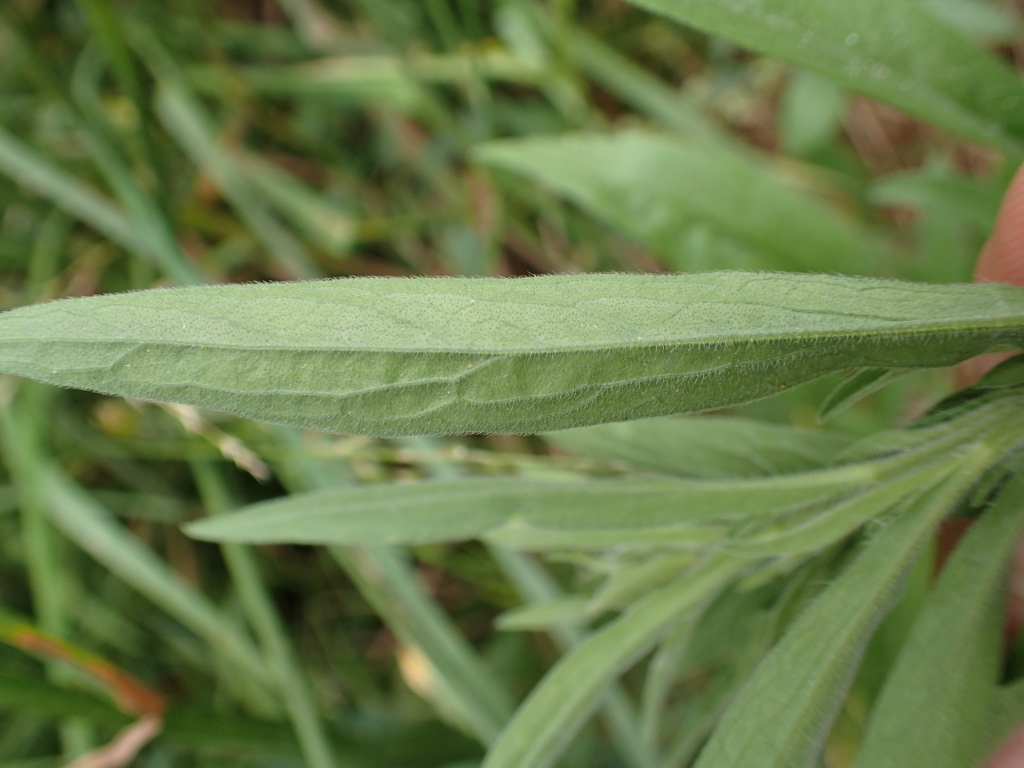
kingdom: Plantae
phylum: Tracheophyta
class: Magnoliopsida
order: Asterales
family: Asteraceae
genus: Erigeron
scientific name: Erigeron sumatrensis
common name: Daisy
